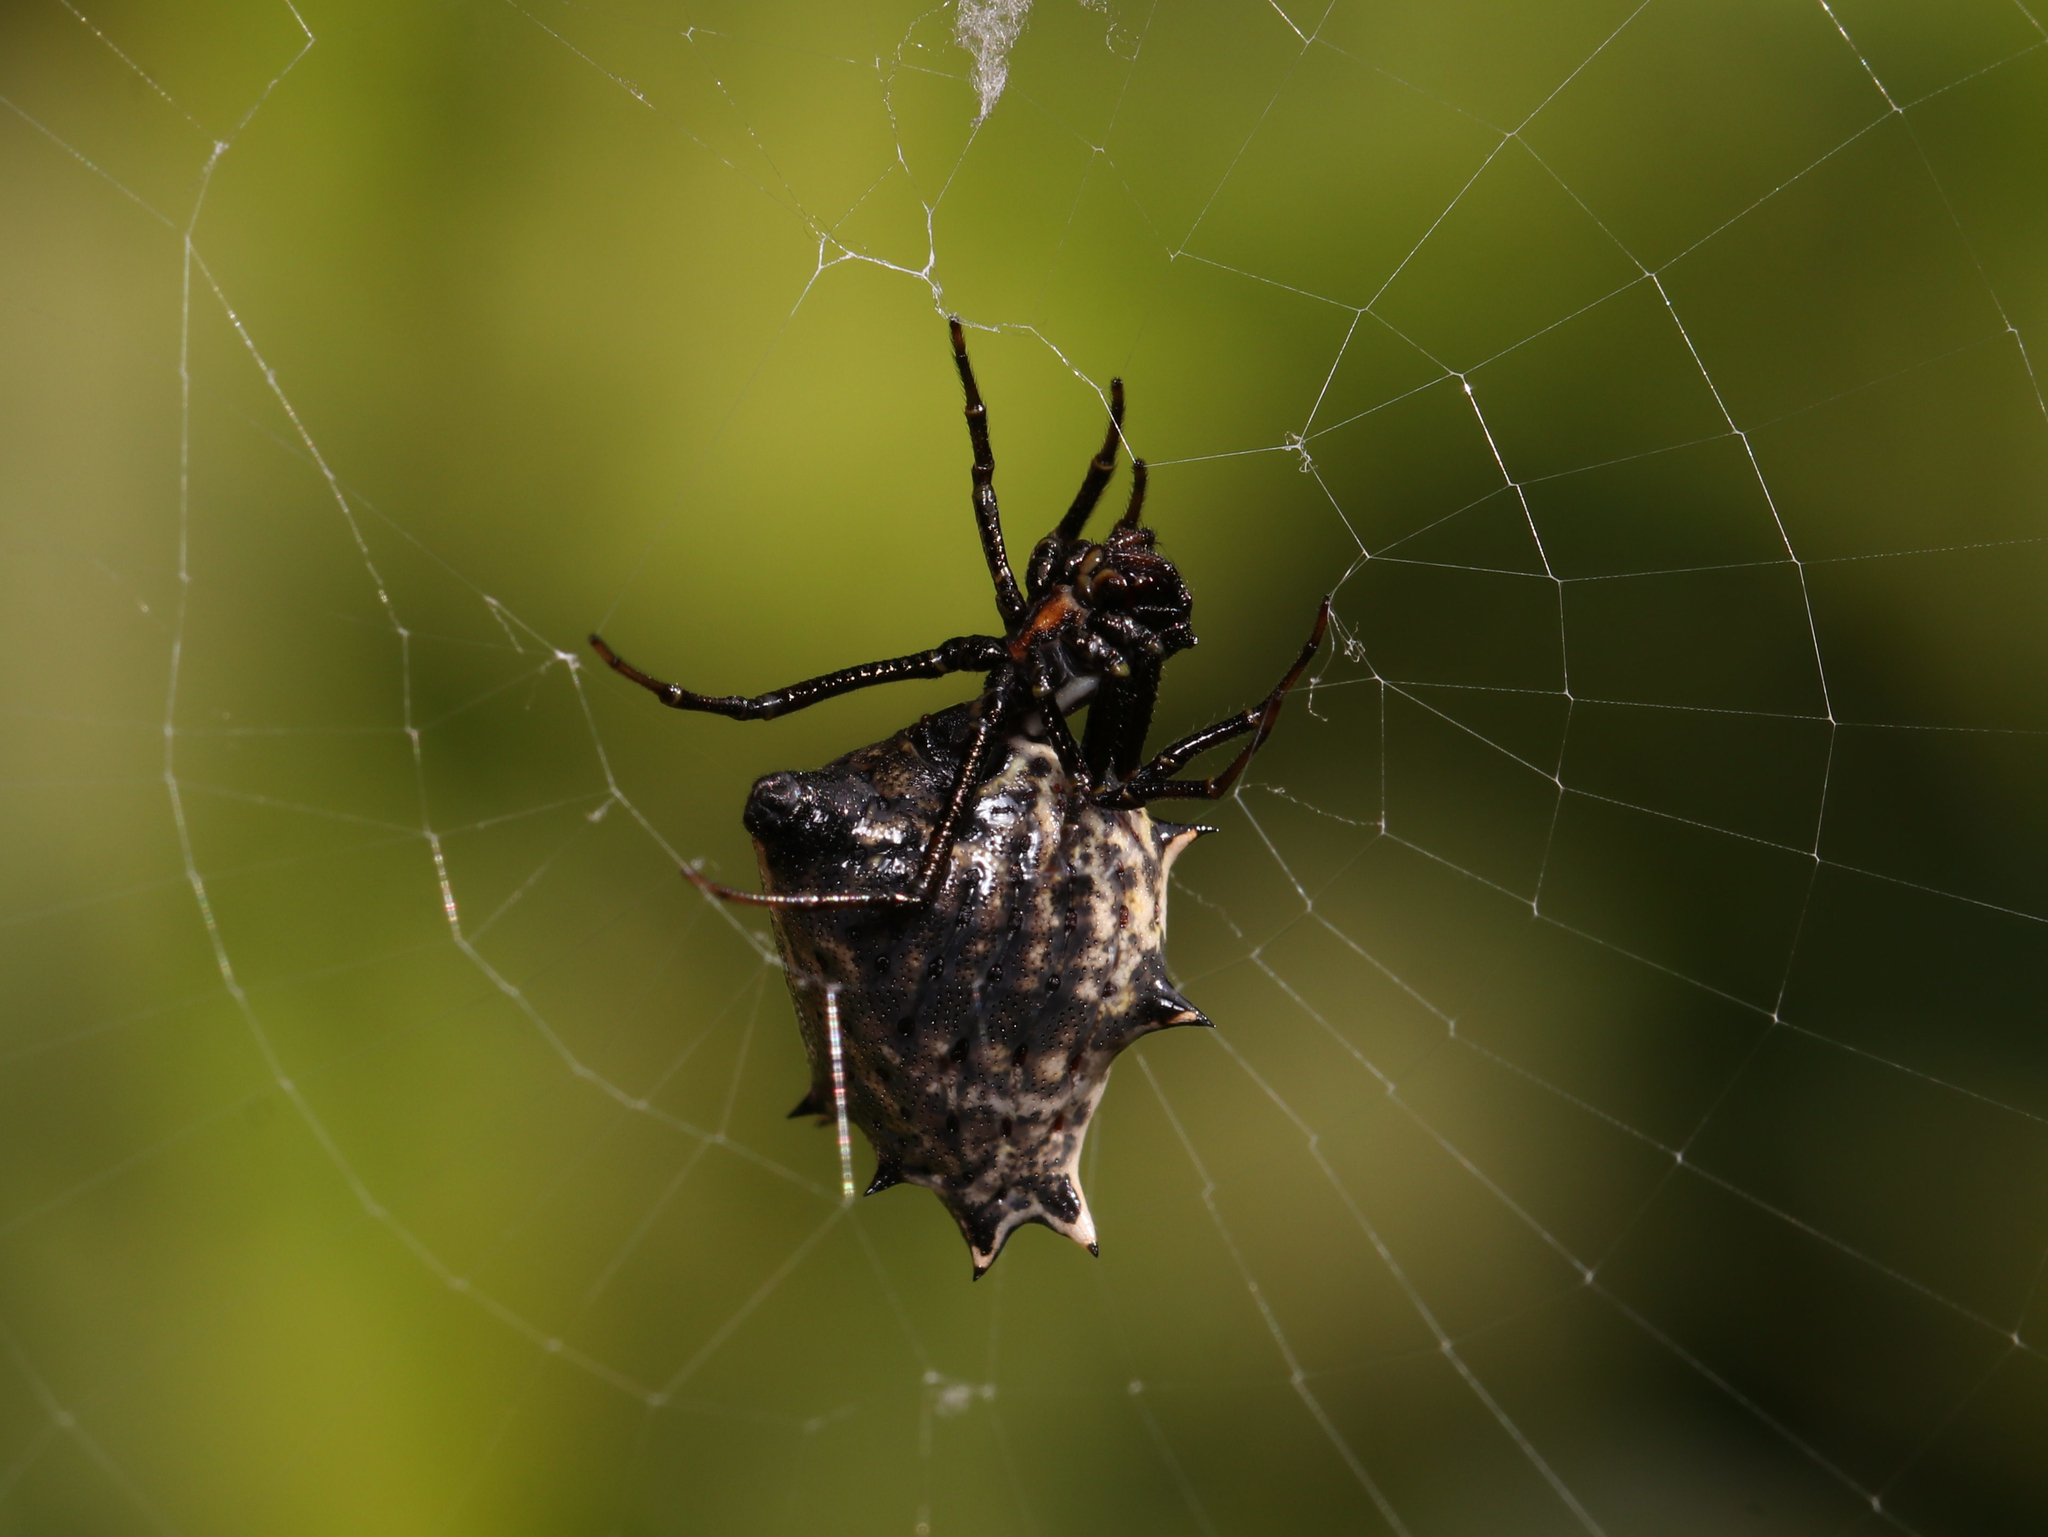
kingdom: Animalia
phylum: Arthropoda
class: Arachnida
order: Araneae
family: Araneidae
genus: Micrathena
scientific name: Micrathena gracilis
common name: Orb weavers
